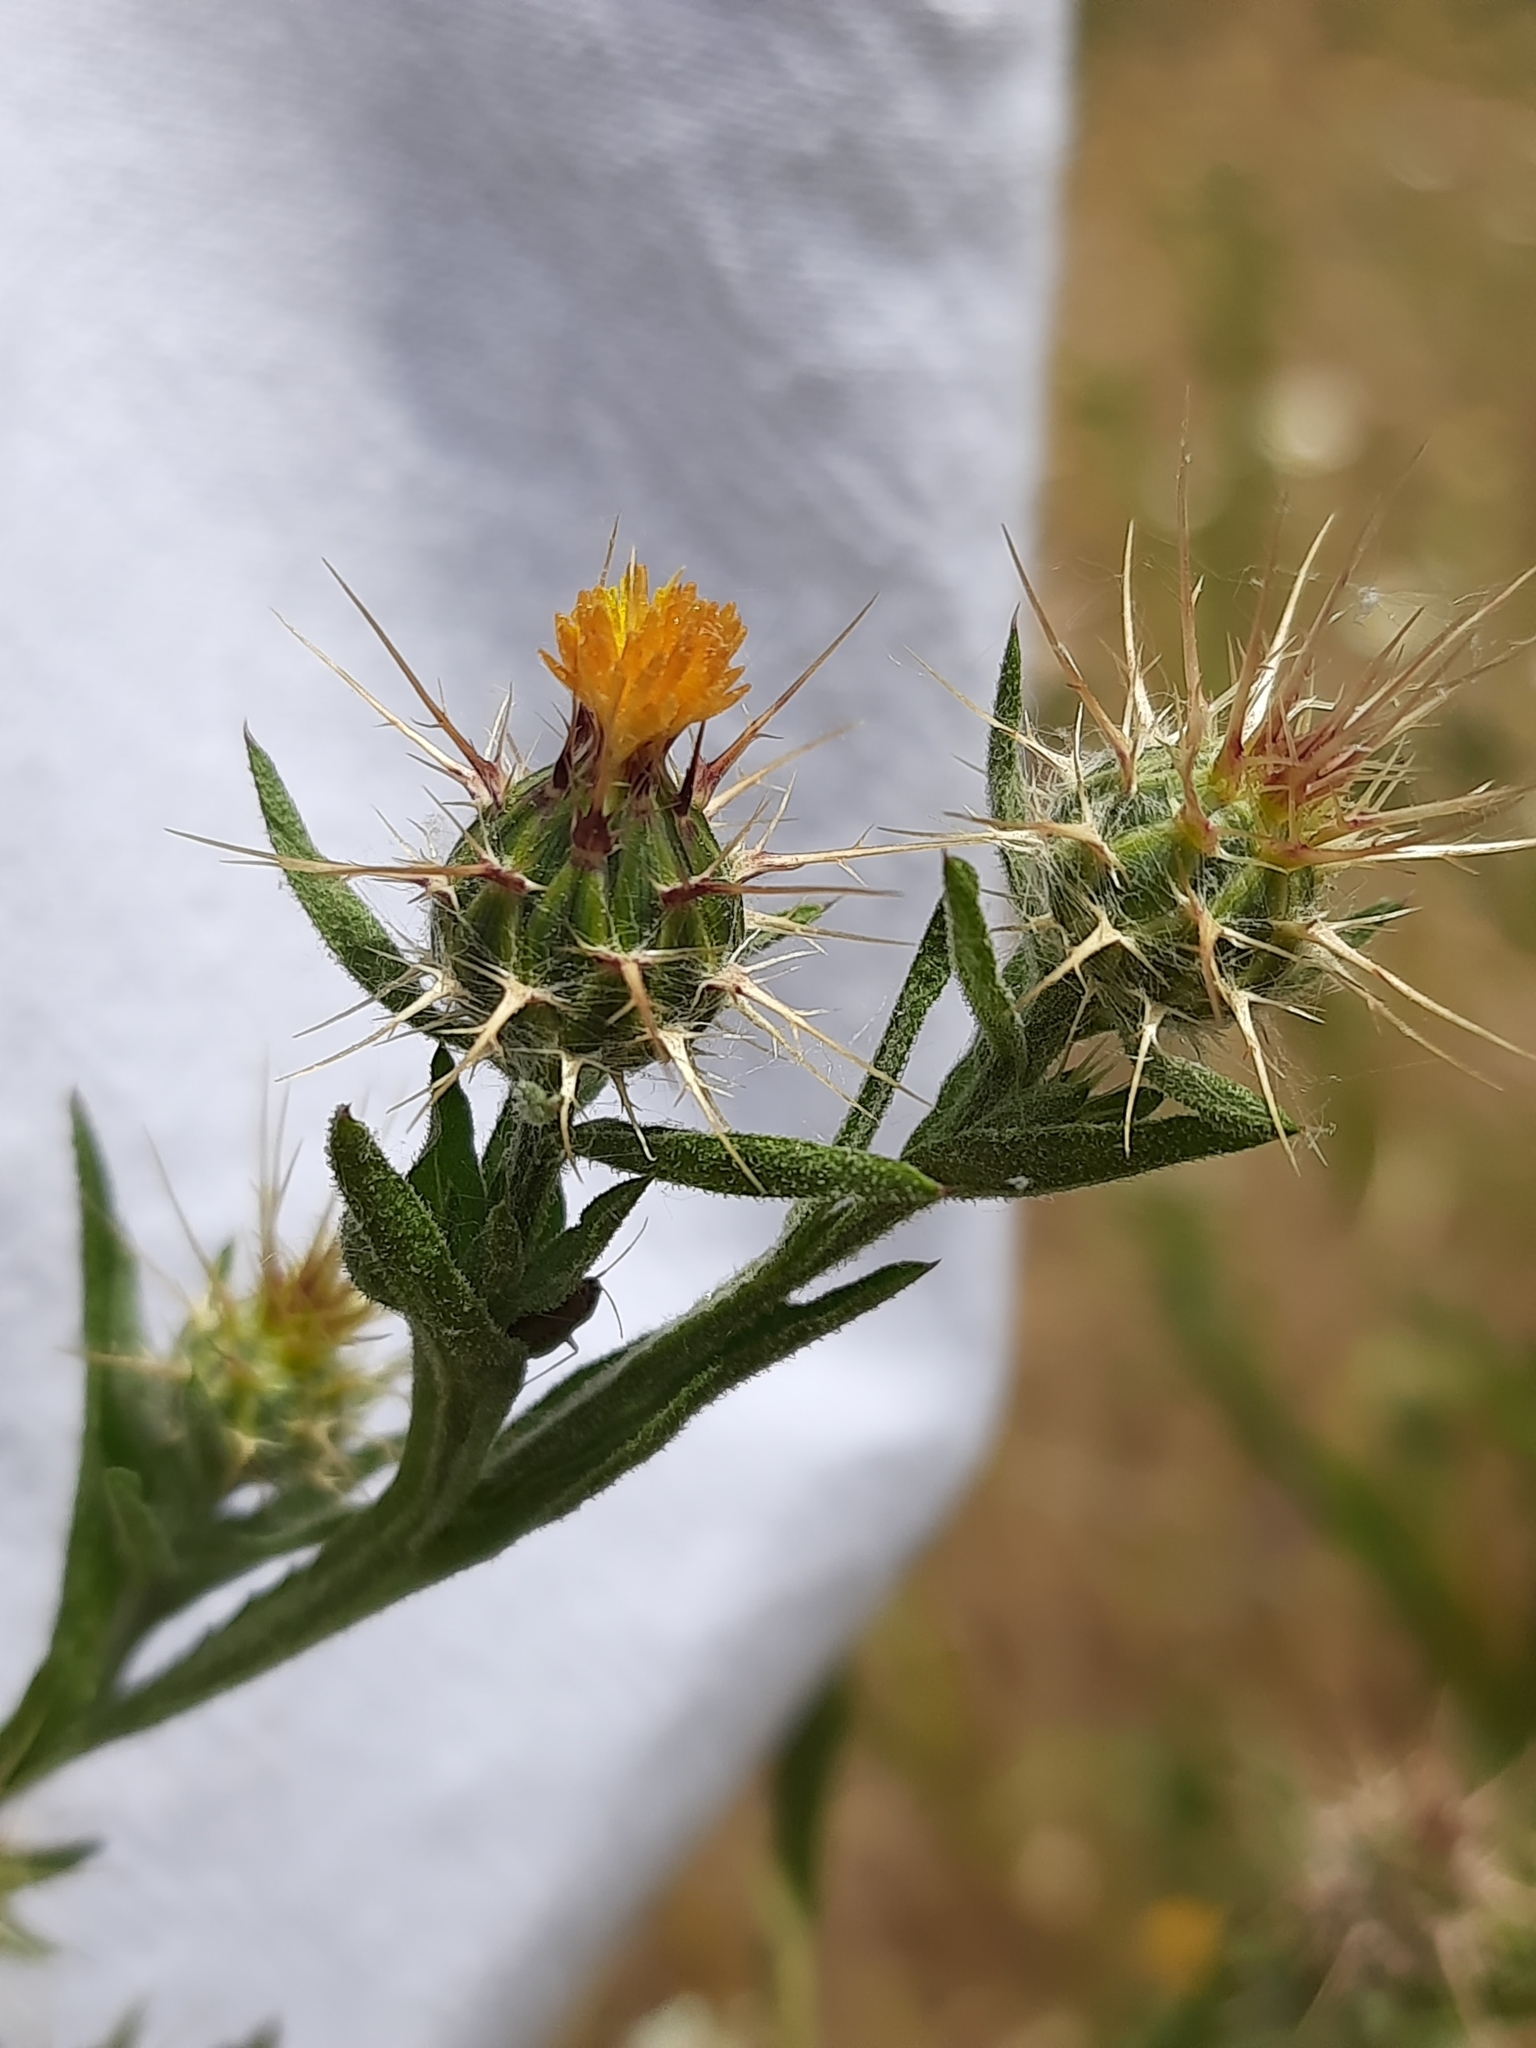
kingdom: Plantae
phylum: Tracheophyta
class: Magnoliopsida
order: Asterales
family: Asteraceae
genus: Centaurea
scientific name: Centaurea melitensis
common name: Maltese star-thistle
